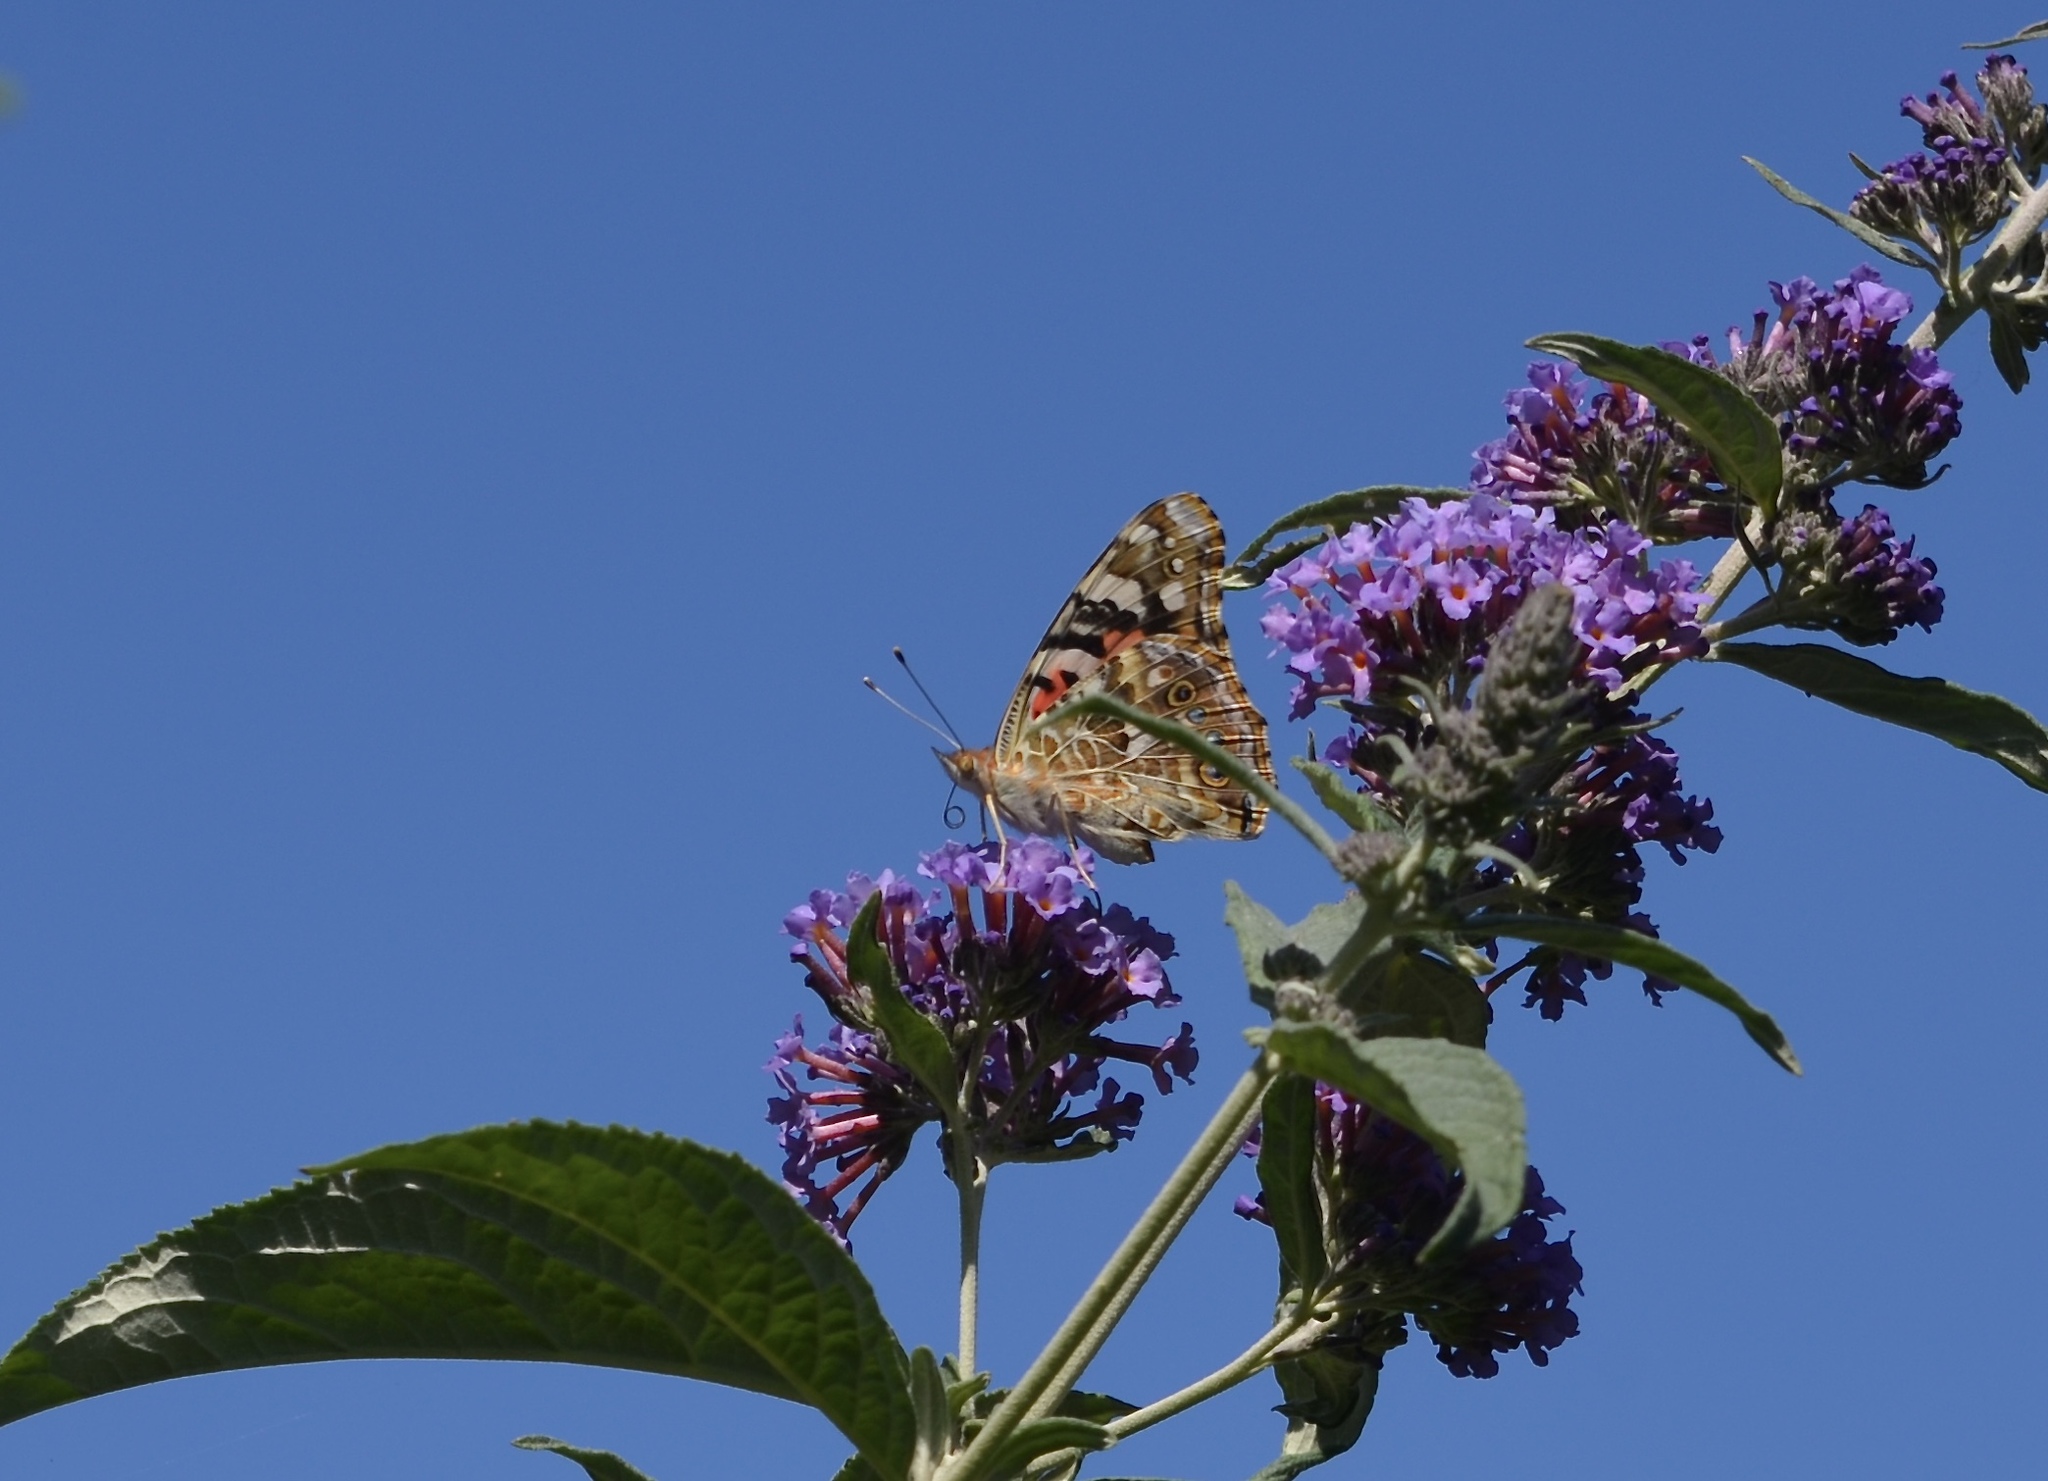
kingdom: Animalia
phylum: Arthropoda
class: Insecta
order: Lepidoptera
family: Nymphalidae
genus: Vanessa
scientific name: Vanessa cardui
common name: Painted lady
